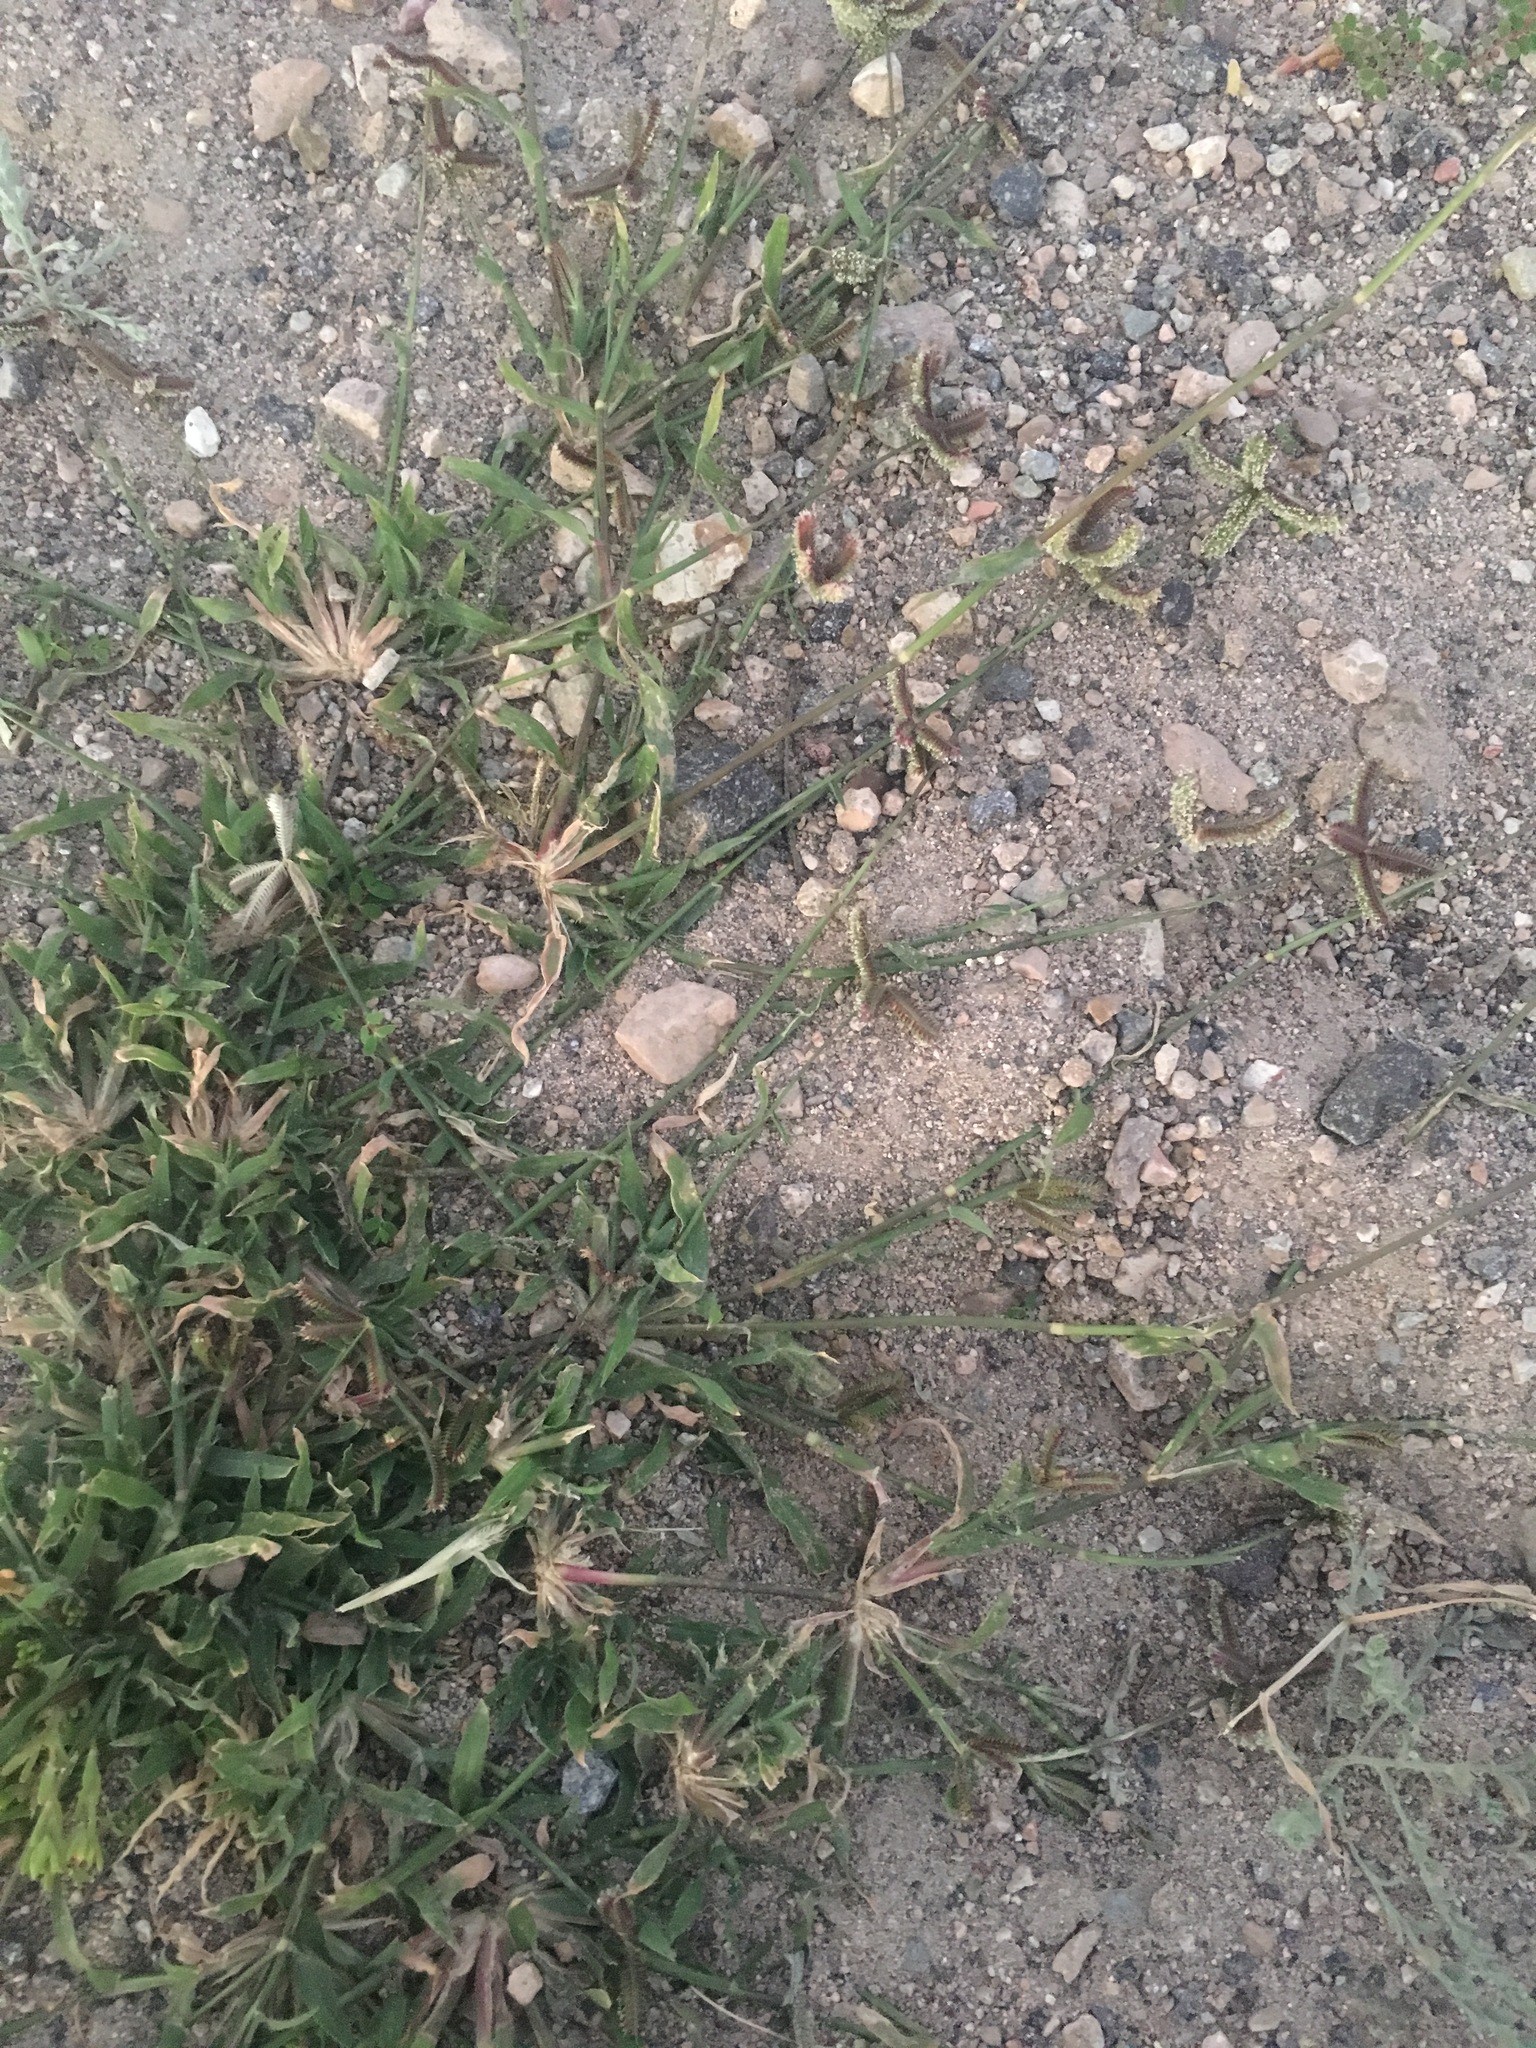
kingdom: Plantae
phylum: Tracheophyta
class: Liliopsida
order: Poales
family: Poaceae
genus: Dactyloctenium
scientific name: Dactyloctenium aegyptium
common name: Egyptian grass
